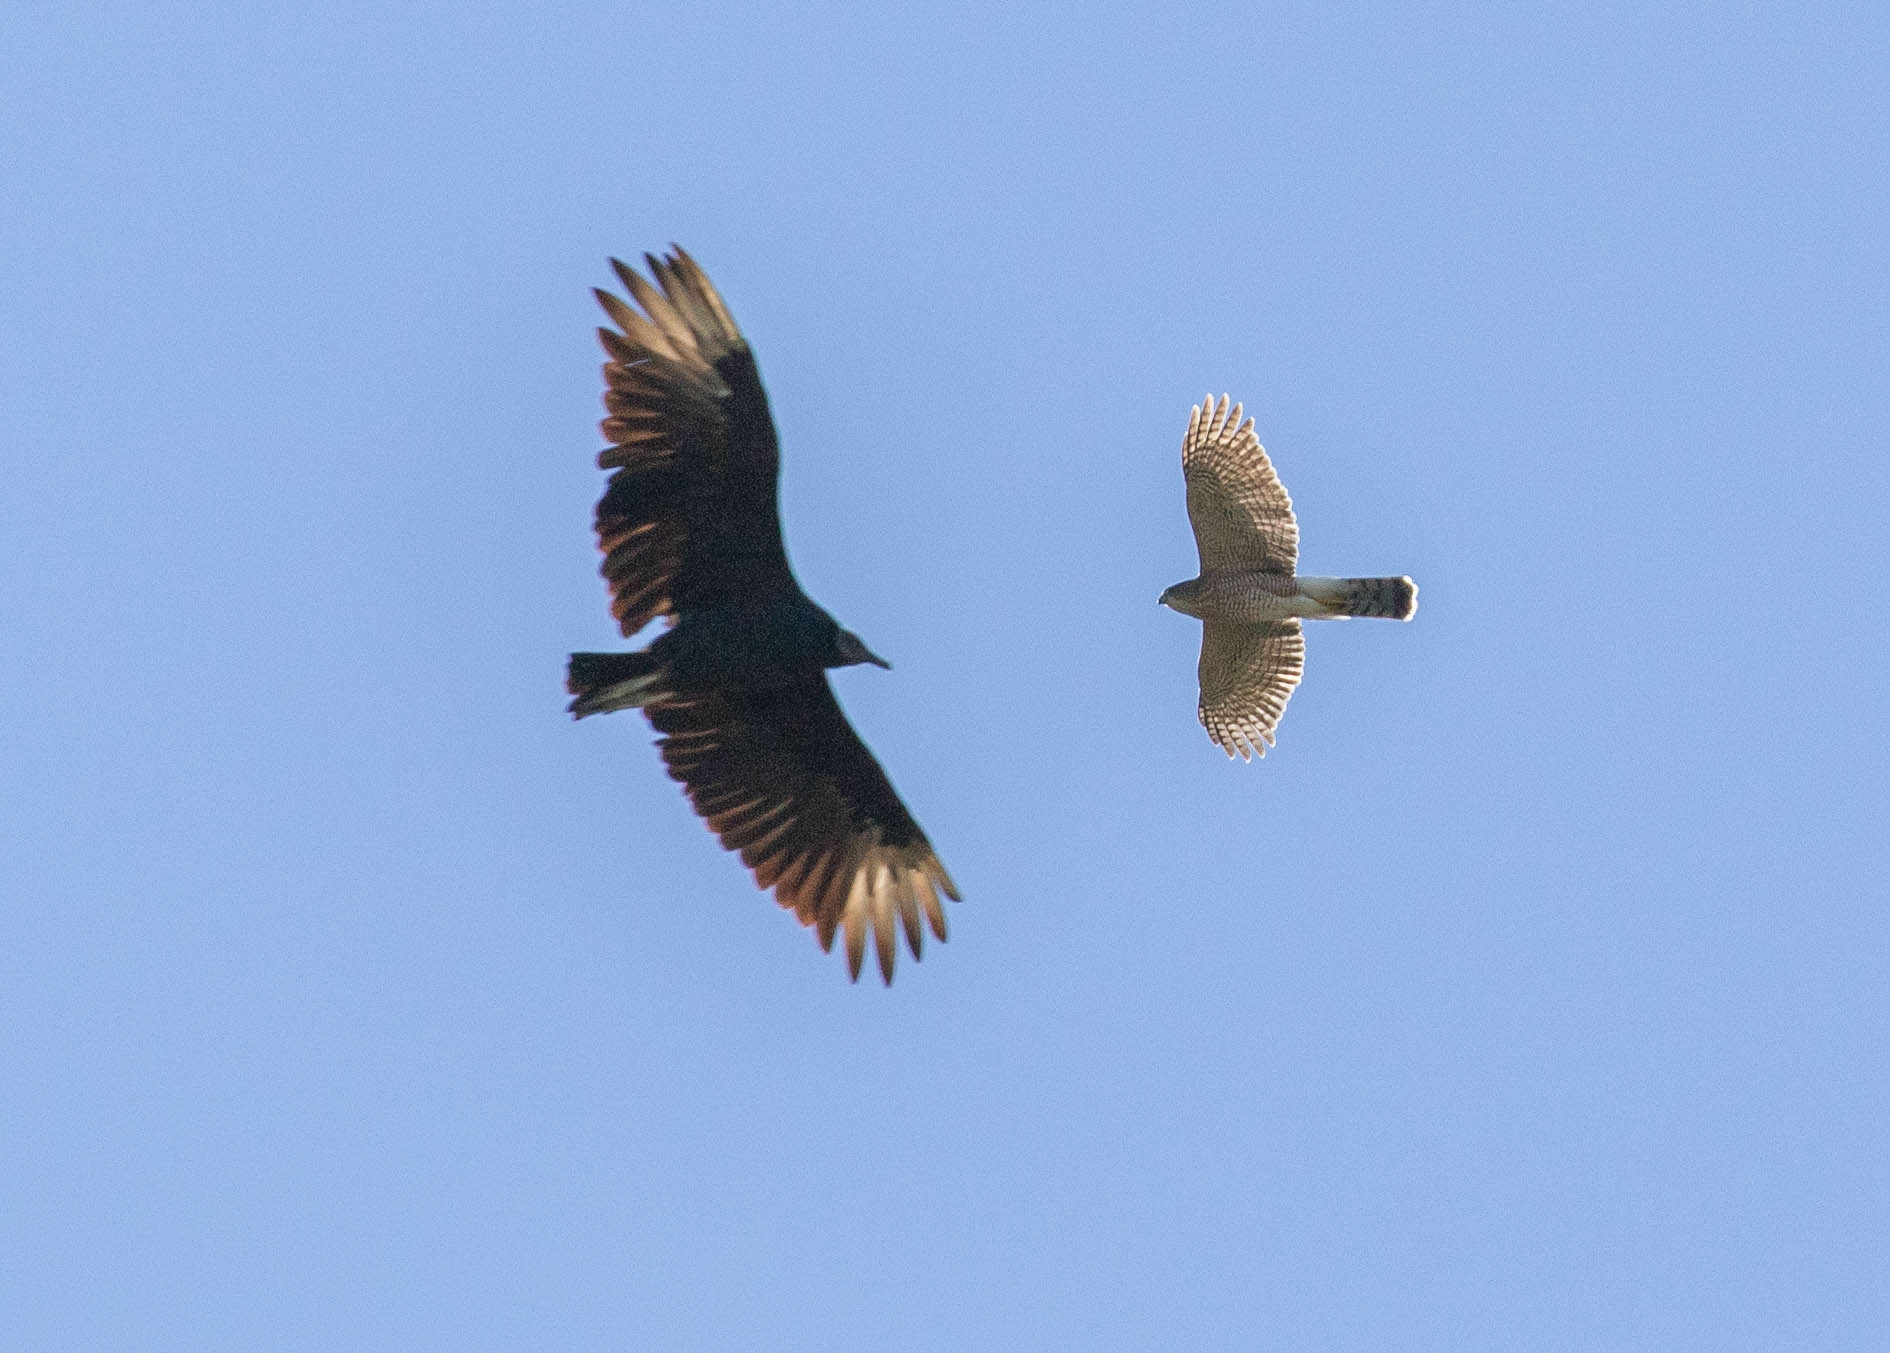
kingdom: Animalia
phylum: Chordata
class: Aves
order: Accipitriformes
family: Accipitridae
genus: Accipiter
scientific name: Accipiter cooperii
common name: Cooper's hawk
